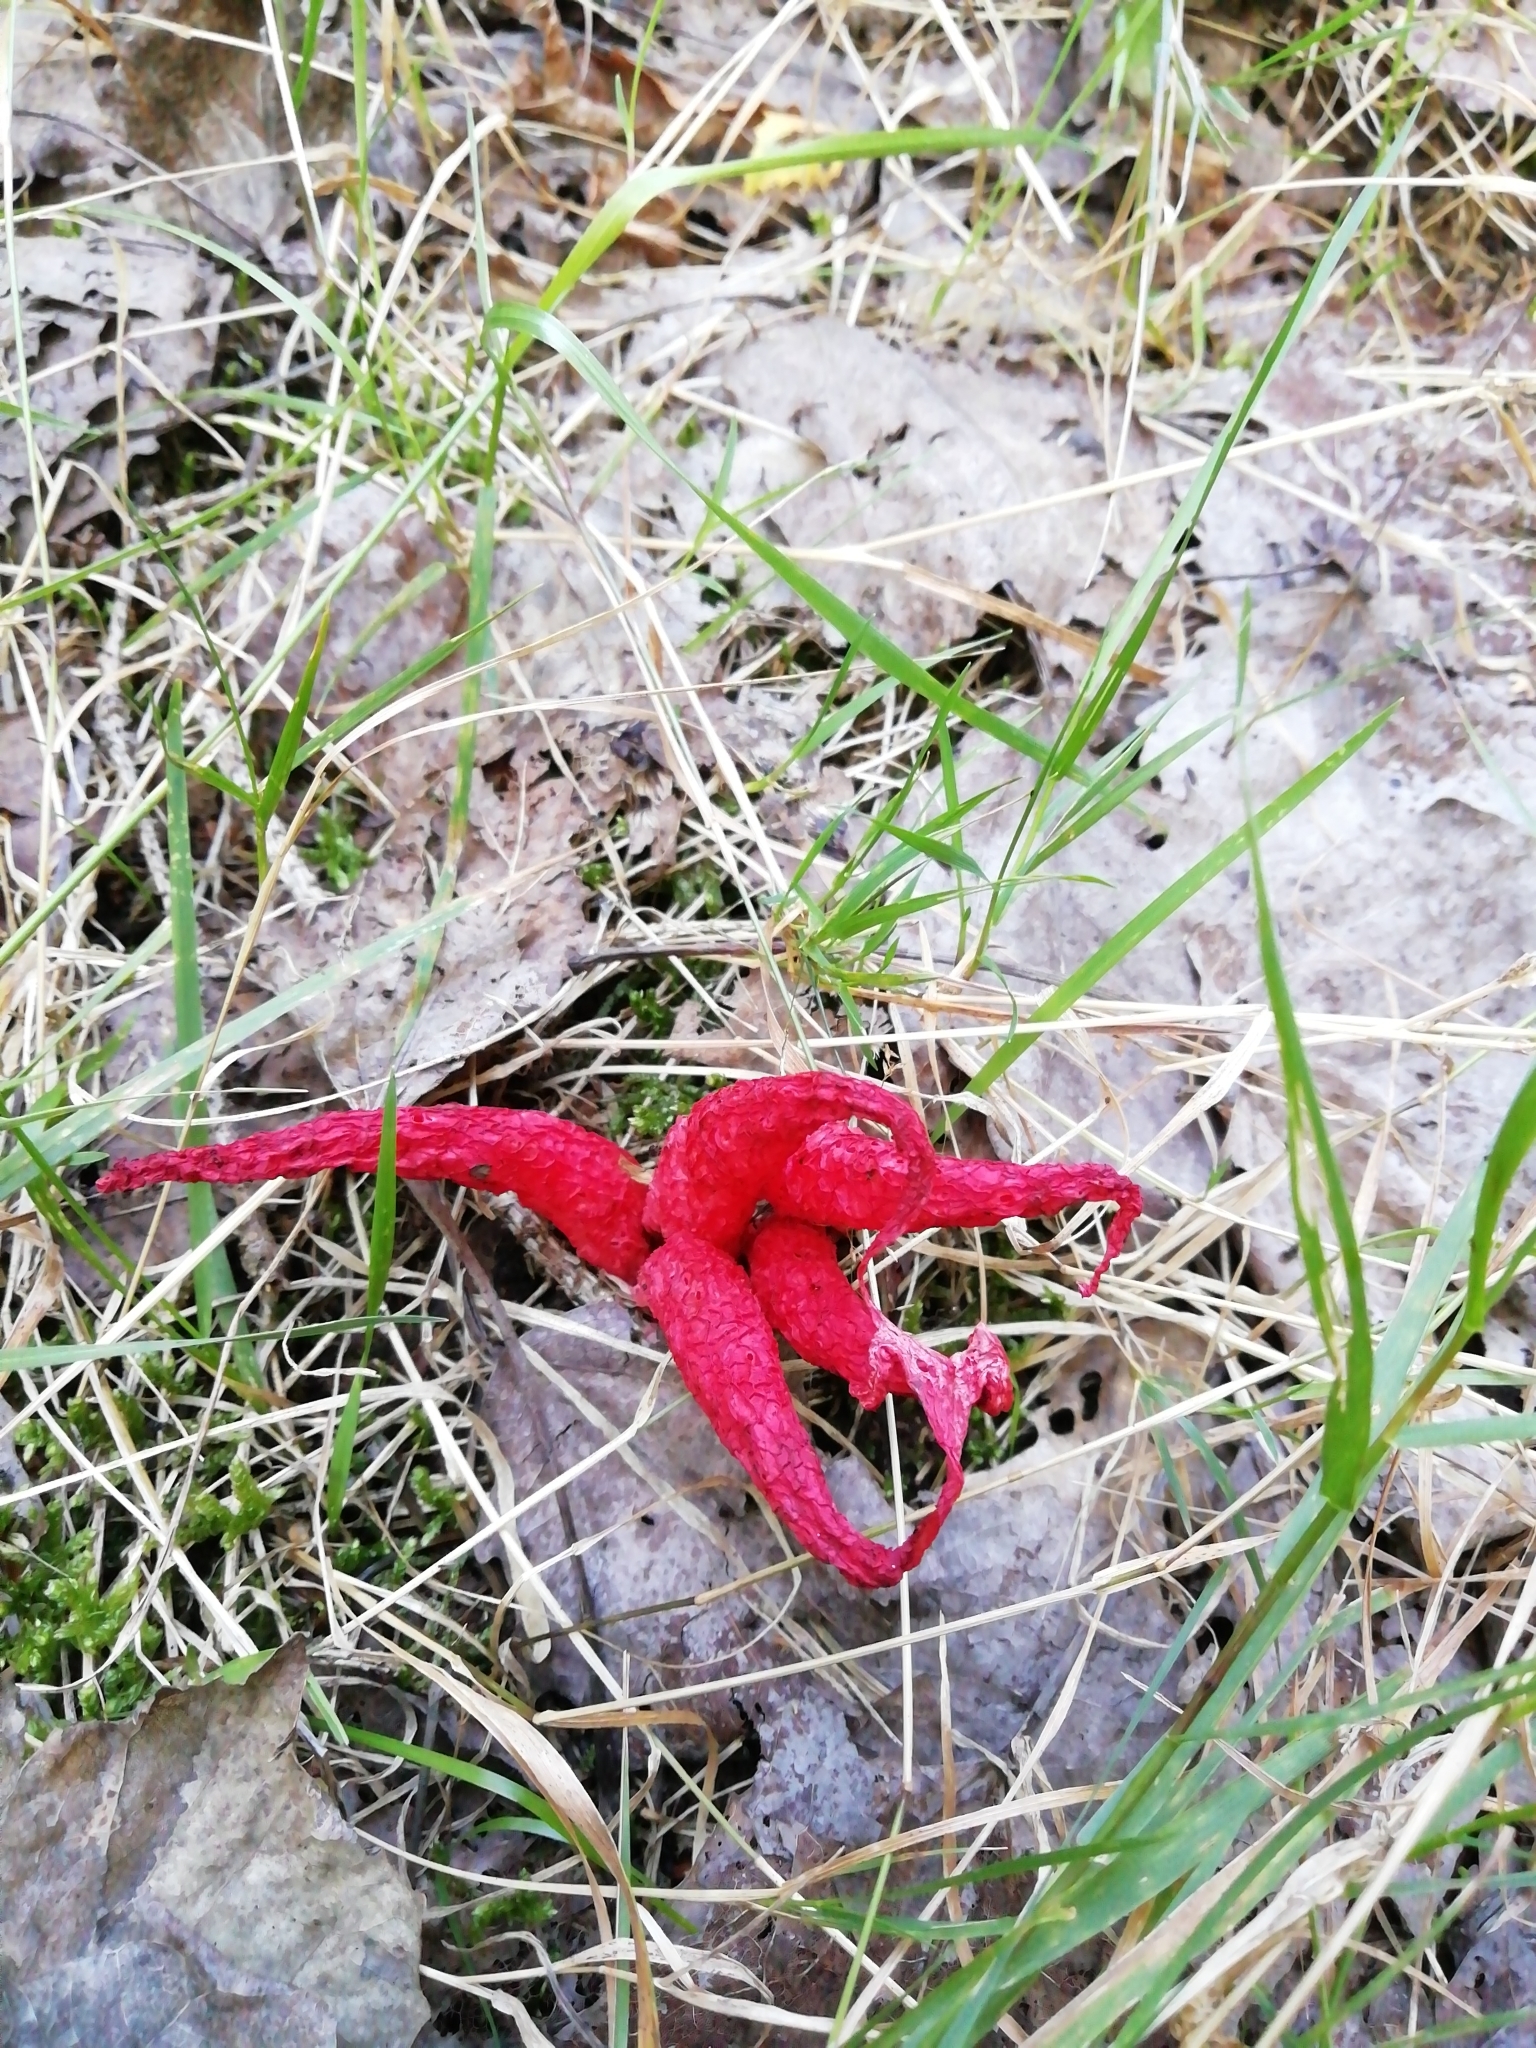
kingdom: Fungi
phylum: Basidiomycota
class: Agaricomycetes
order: Phallales
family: Phallaceae
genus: Clathrus
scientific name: Clathrus archeri
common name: Devil's fingers
